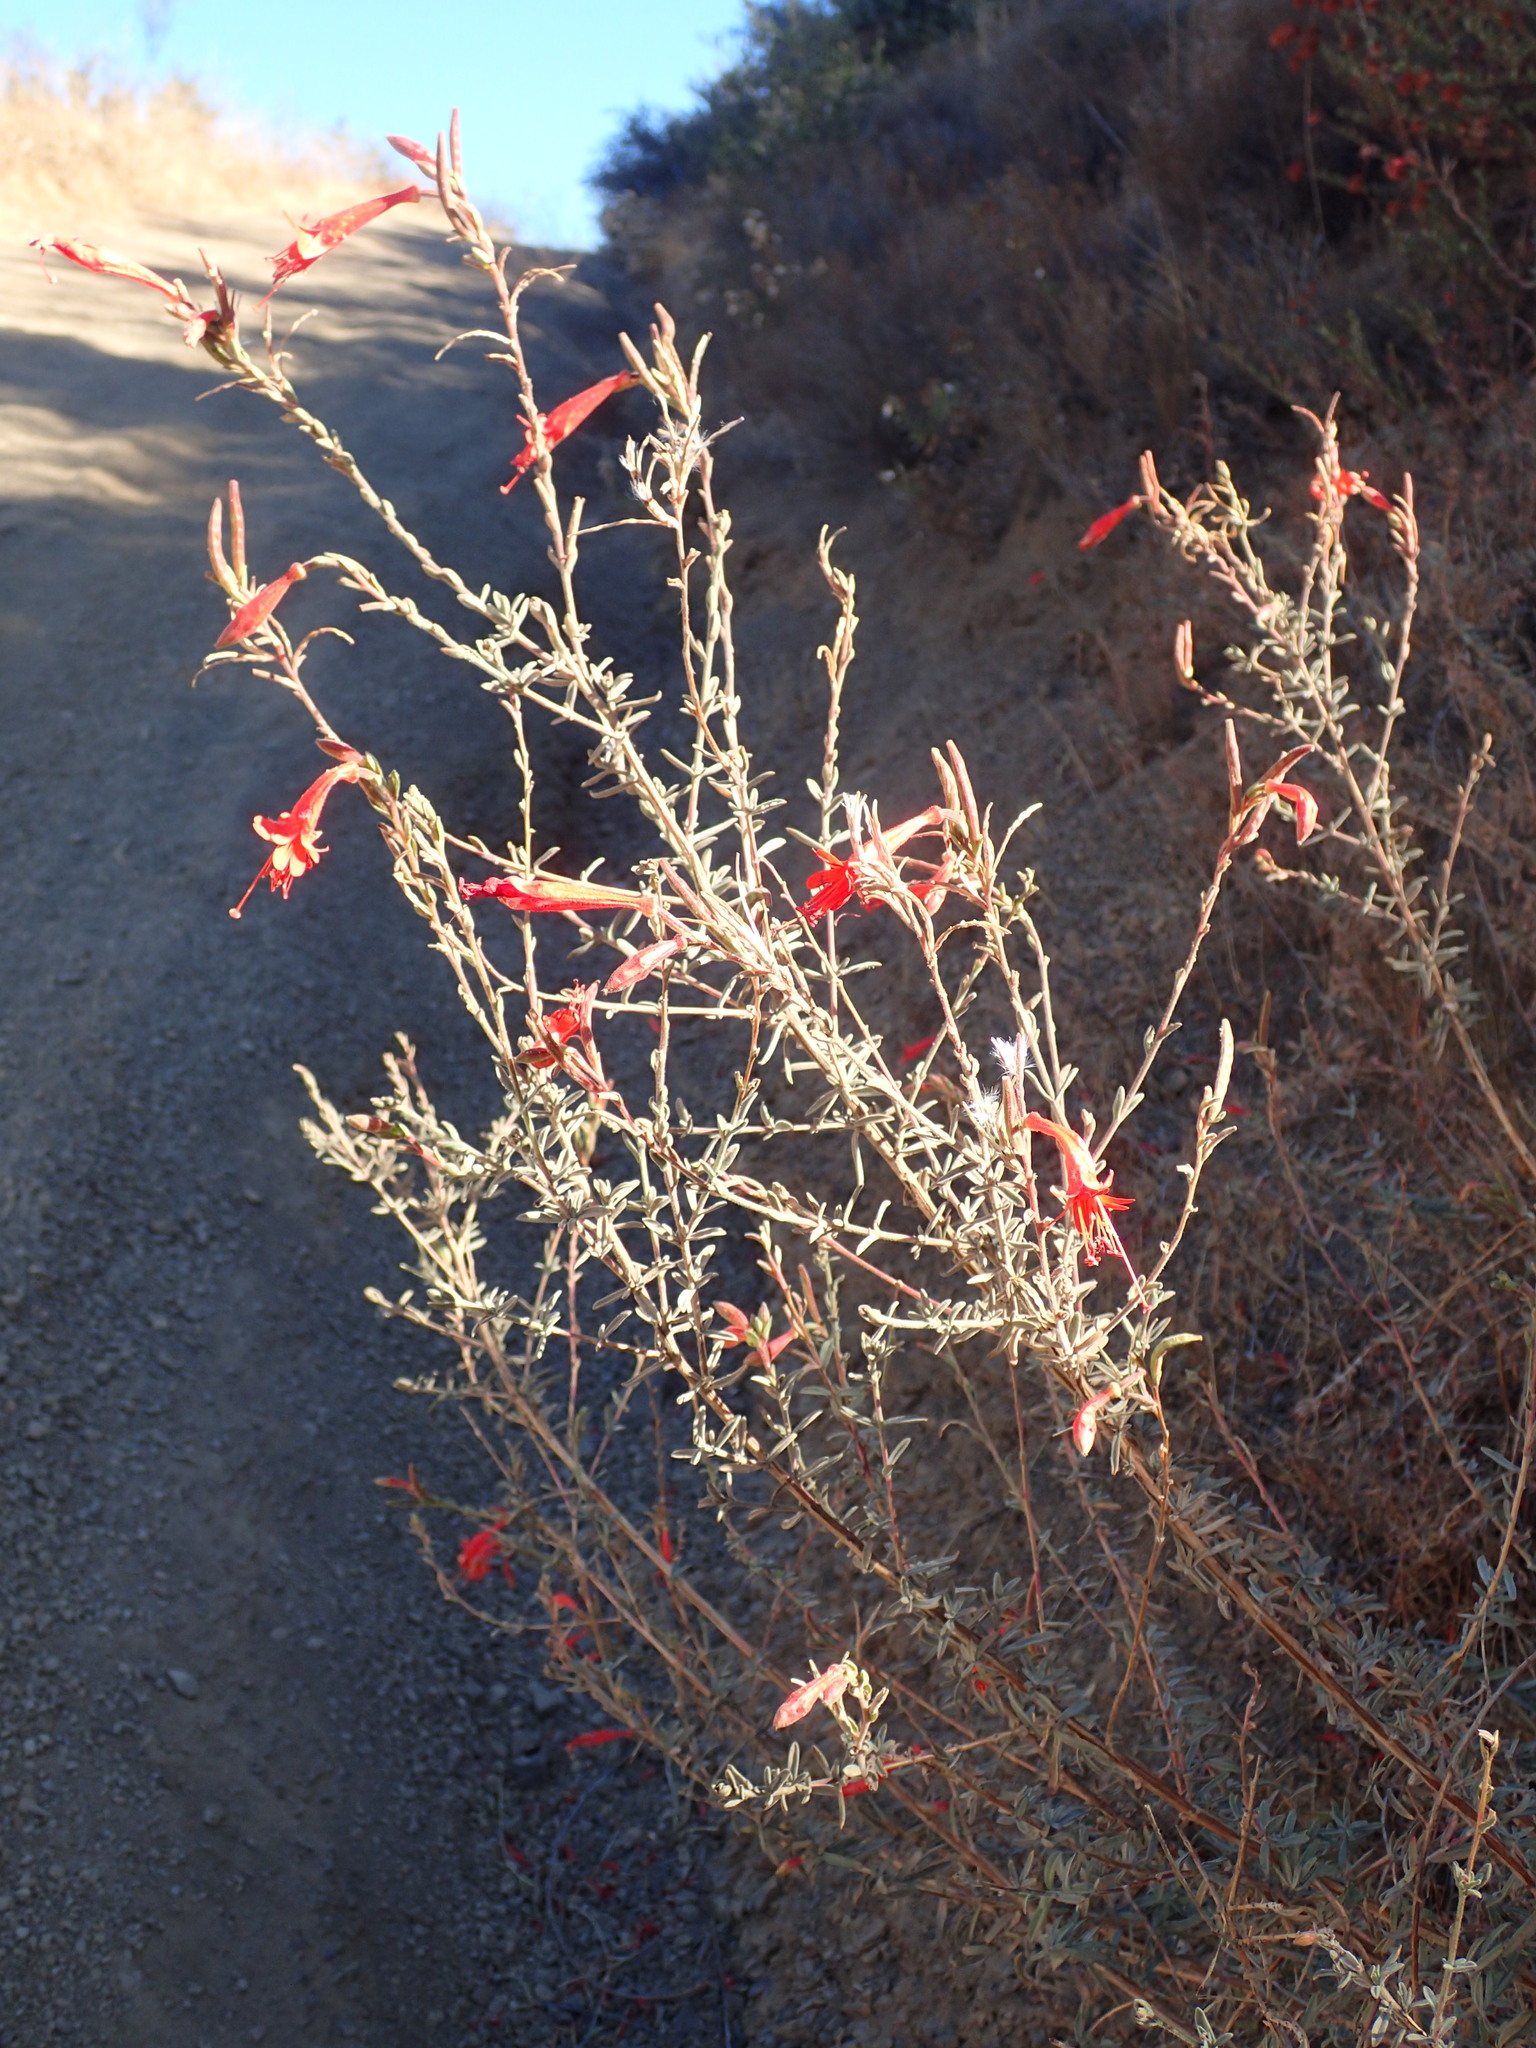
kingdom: Plantae
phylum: Tracheophyta
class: Magnoliopsida
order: Myrtales
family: Onagraceae
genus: Epilobium
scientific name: Epilobium canum
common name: California-fuchsia
